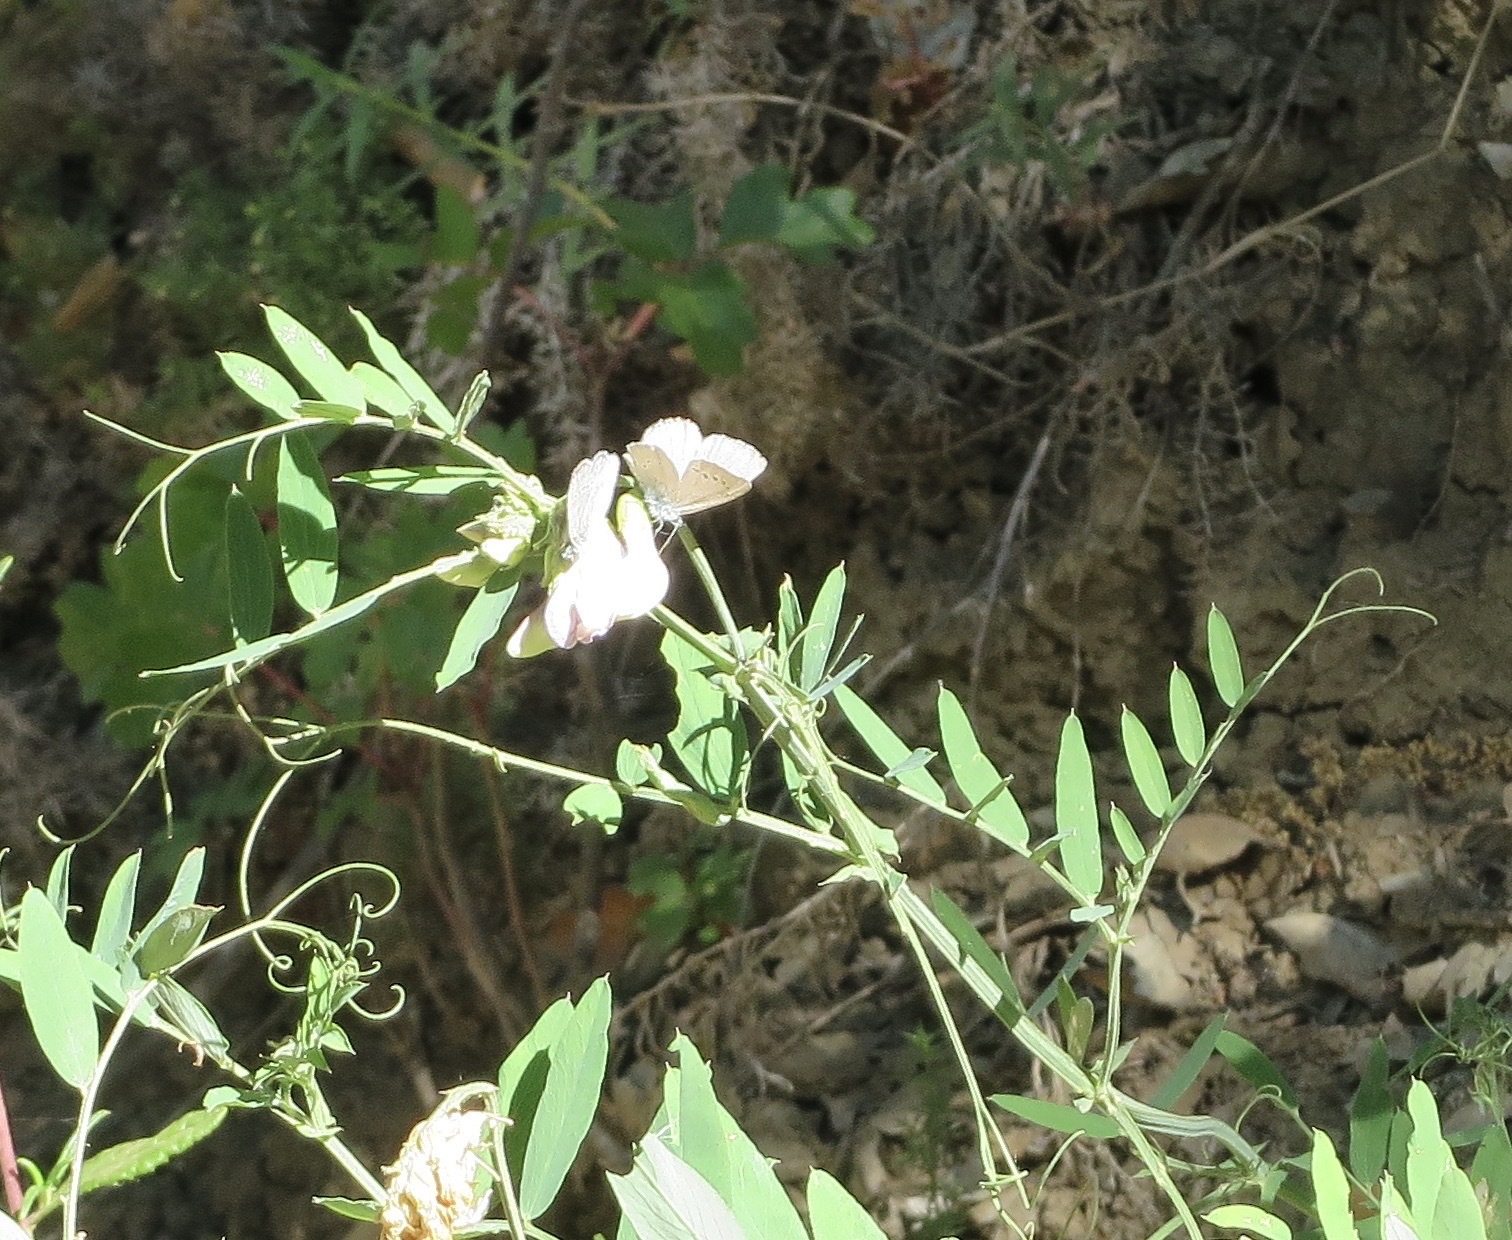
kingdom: Animalia
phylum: Arthropoda
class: Insecta
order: Lepidoptera
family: Lycaenidae
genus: Glaucopsyche
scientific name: Glaucopsyche lygdamus
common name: Silvery blue
